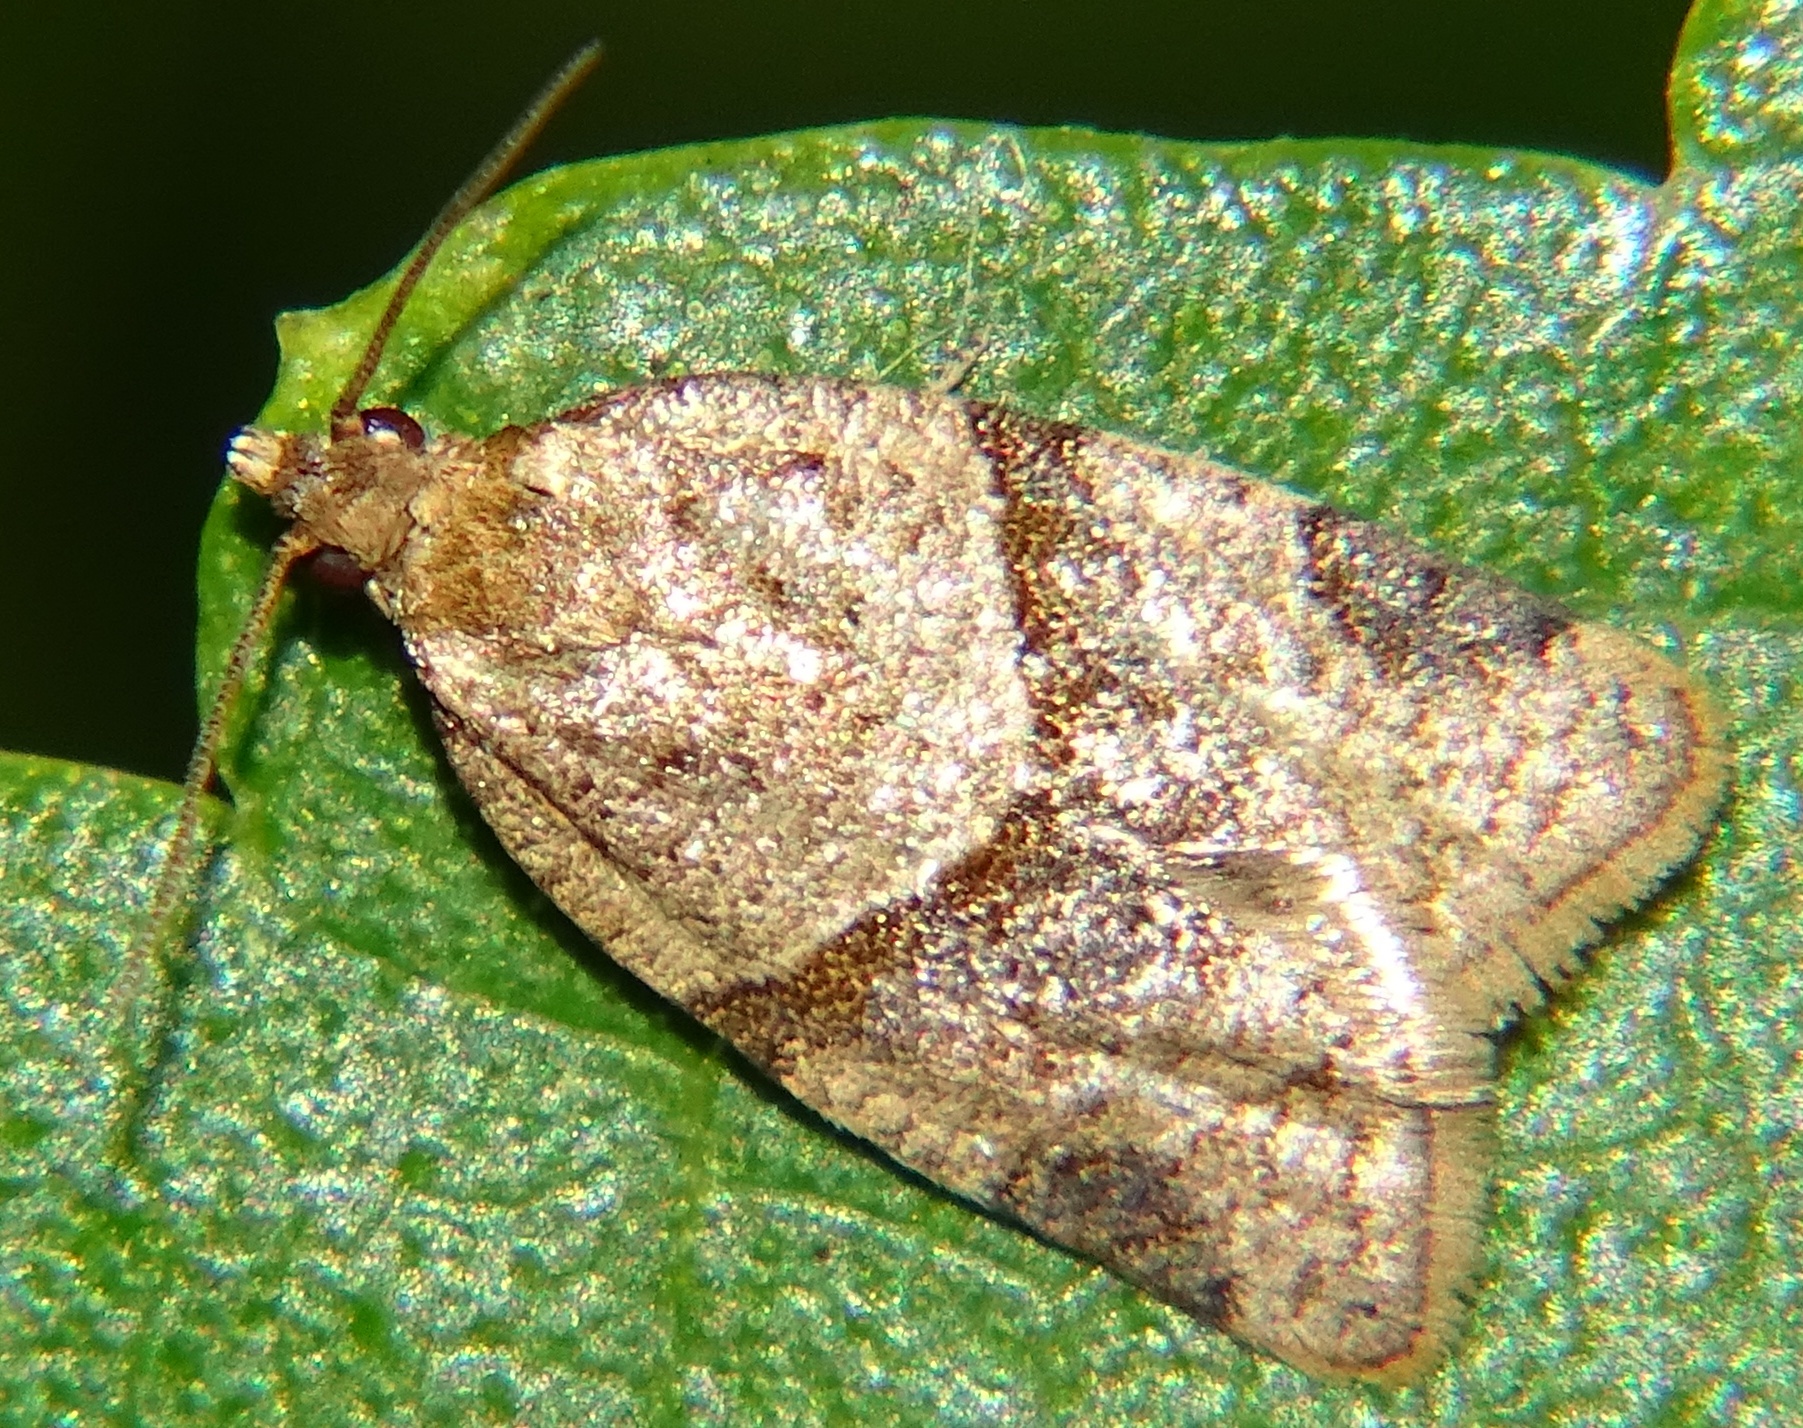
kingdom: Animalia
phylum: Arthropoda
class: Insecta
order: Lepidoptera
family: Tortricidae
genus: Clepsis
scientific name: Clepsis peritana
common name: Garden tortrix
